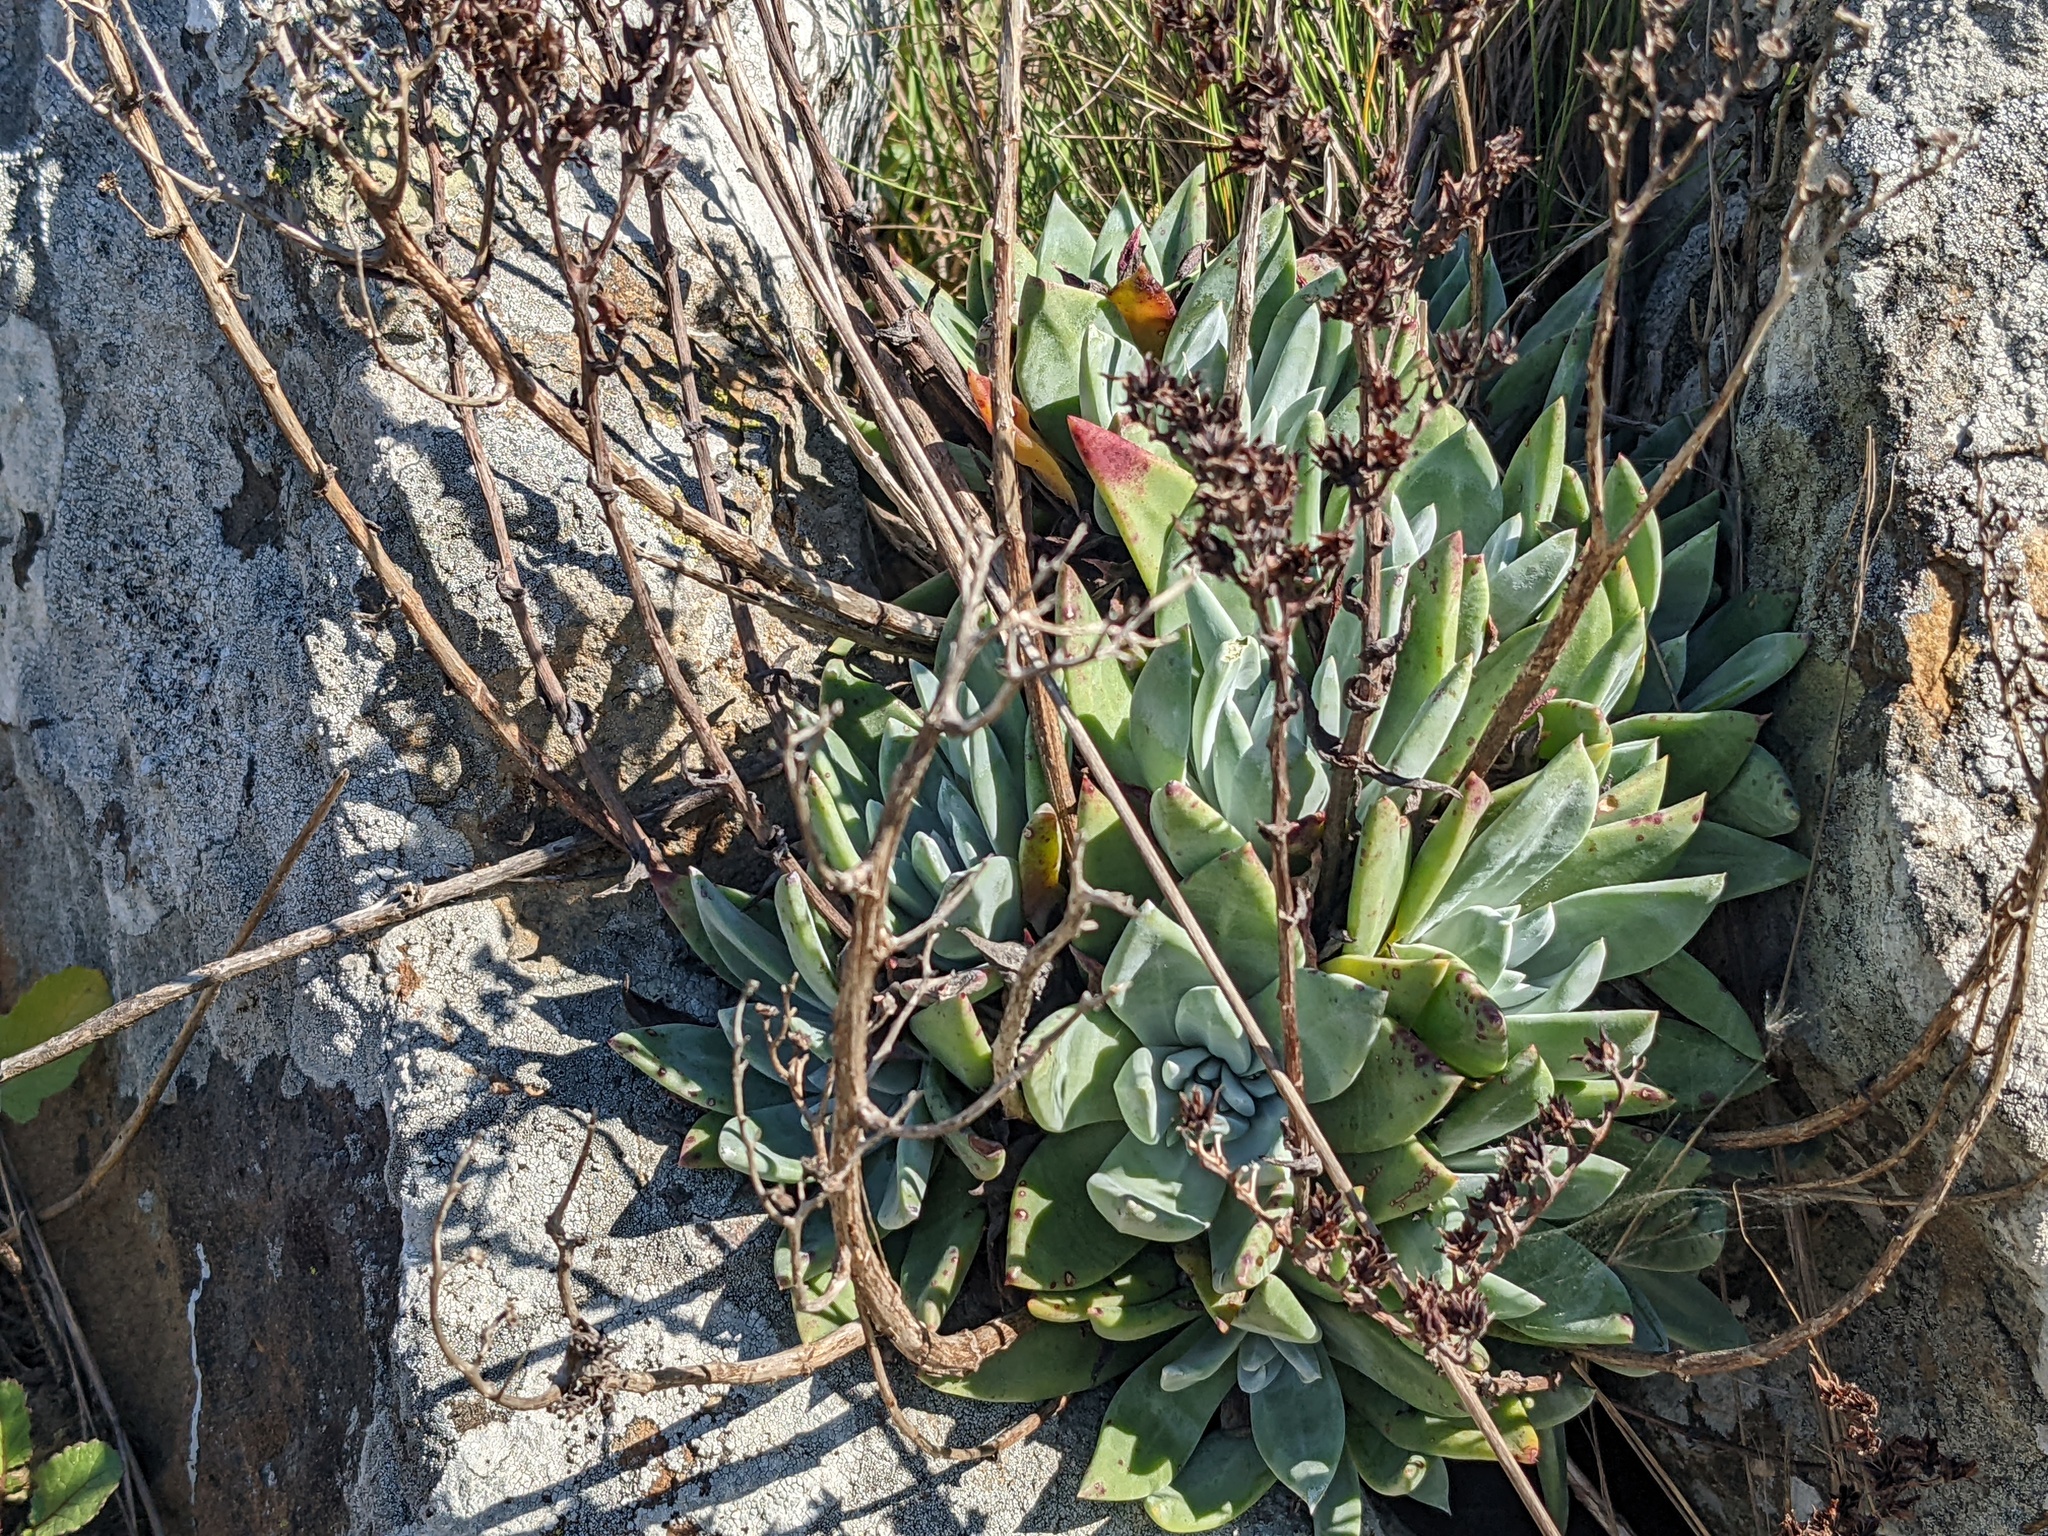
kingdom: Plantae
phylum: Tracheophyta
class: Magnoliopsida
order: Saxifragales
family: Crassulaceae
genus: Dudleya
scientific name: Dudleya farinosa
